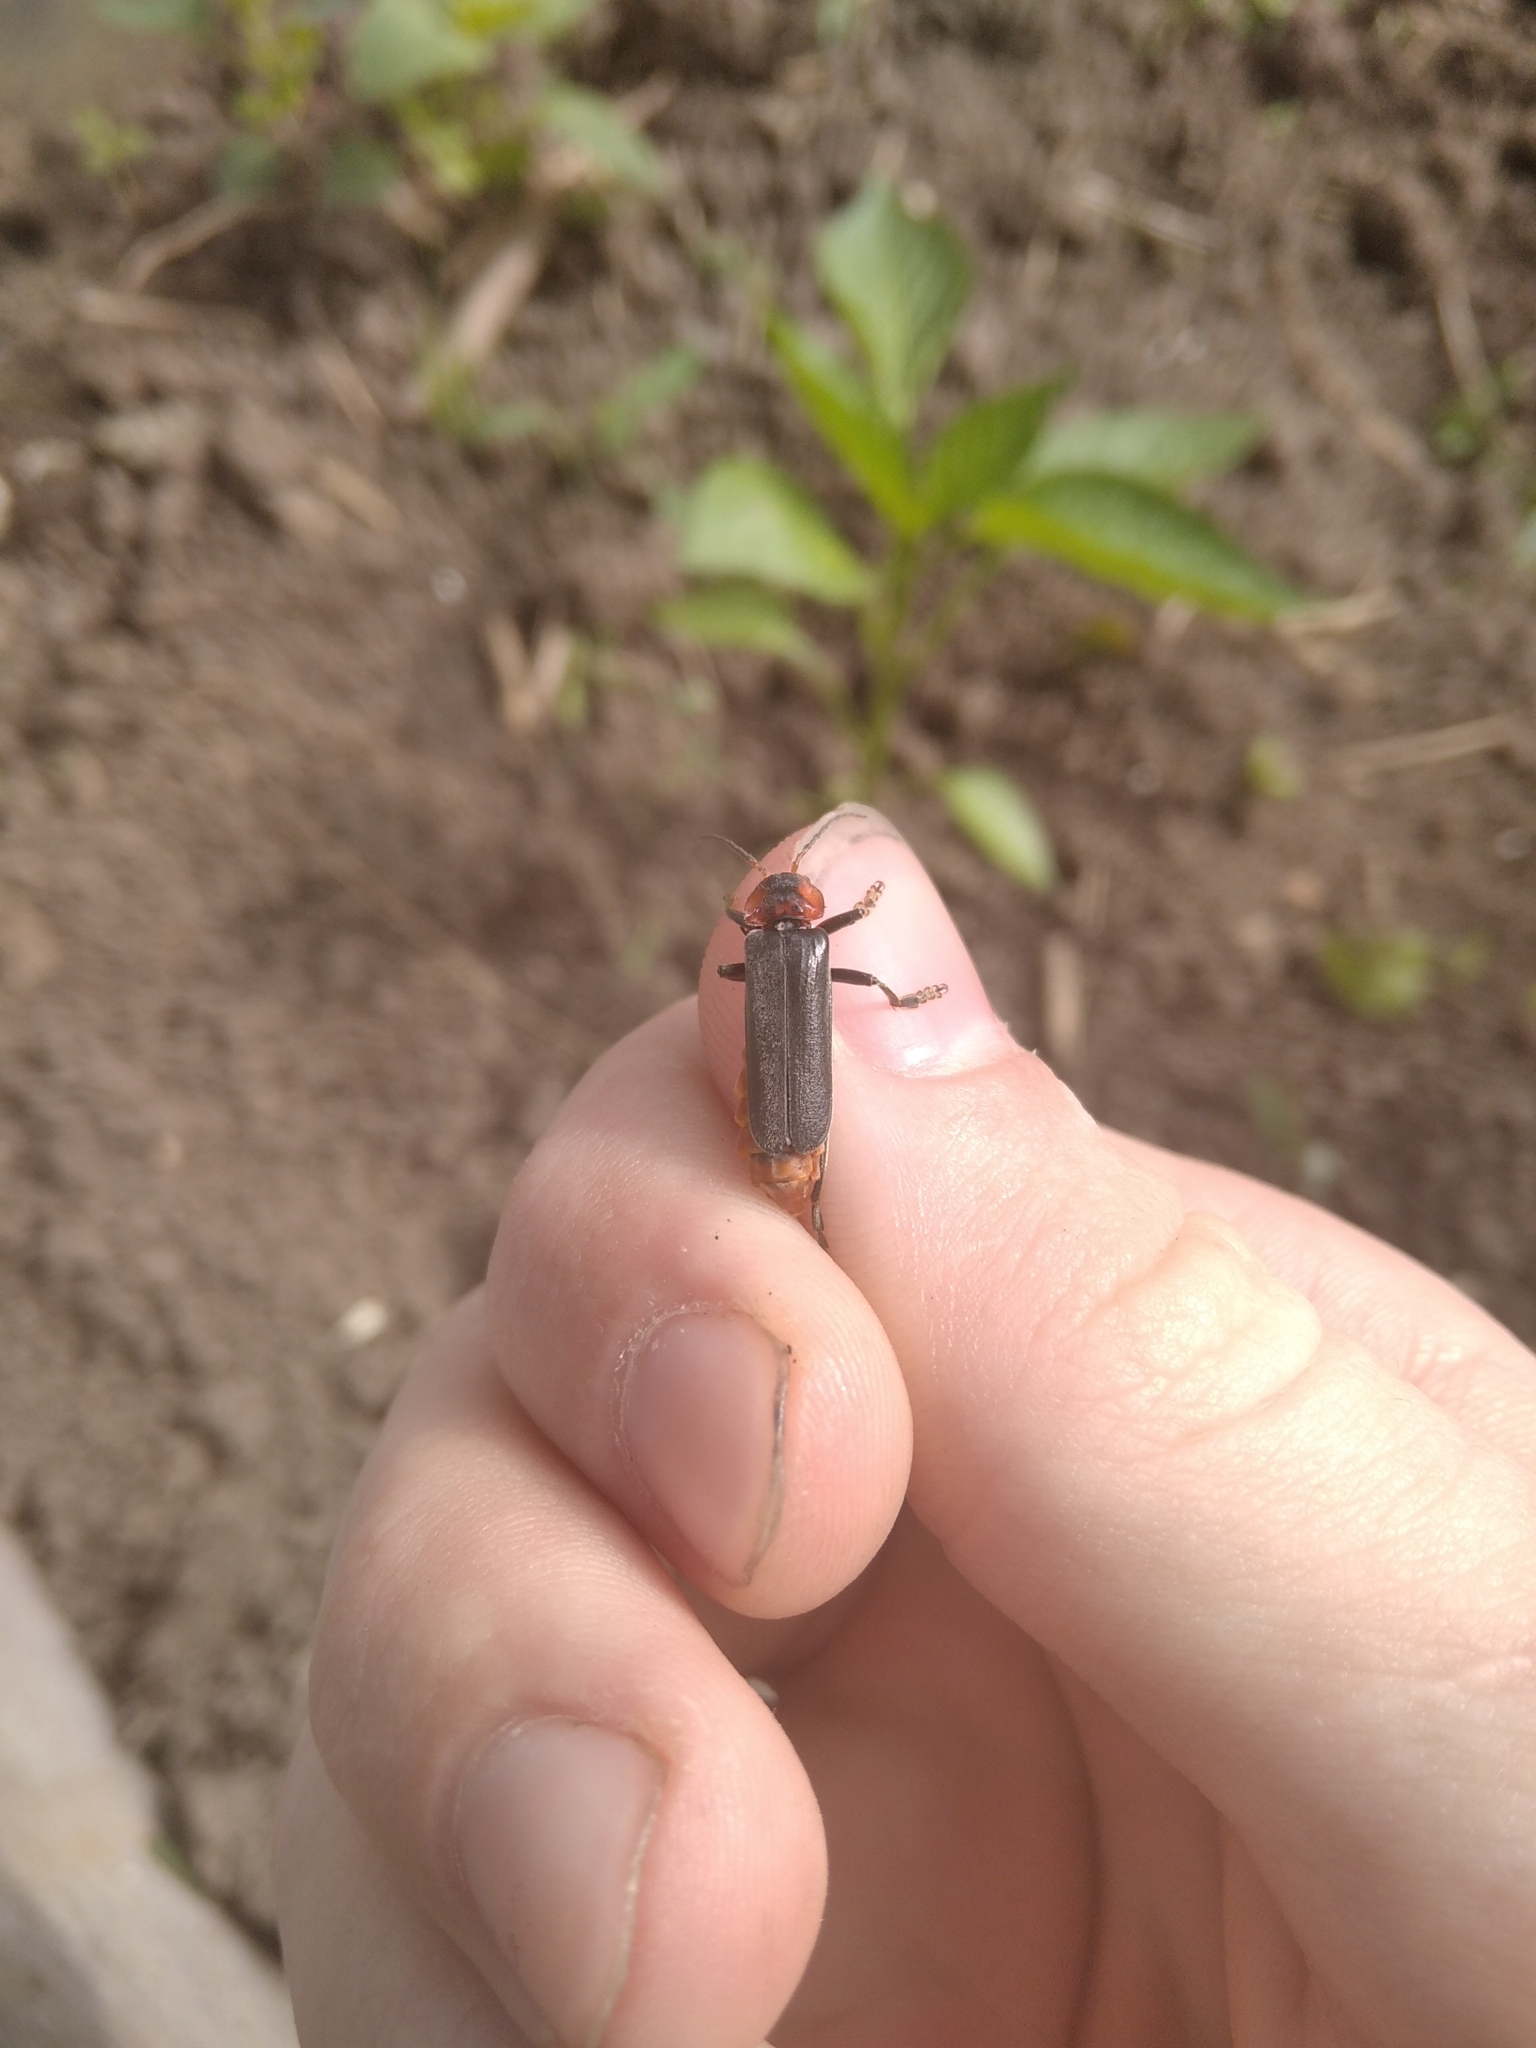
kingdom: Animalia
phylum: Arthropoda
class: Insecta
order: Coleoptera
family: Cantharidae
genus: Cantharis
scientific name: Cantharis fusca
